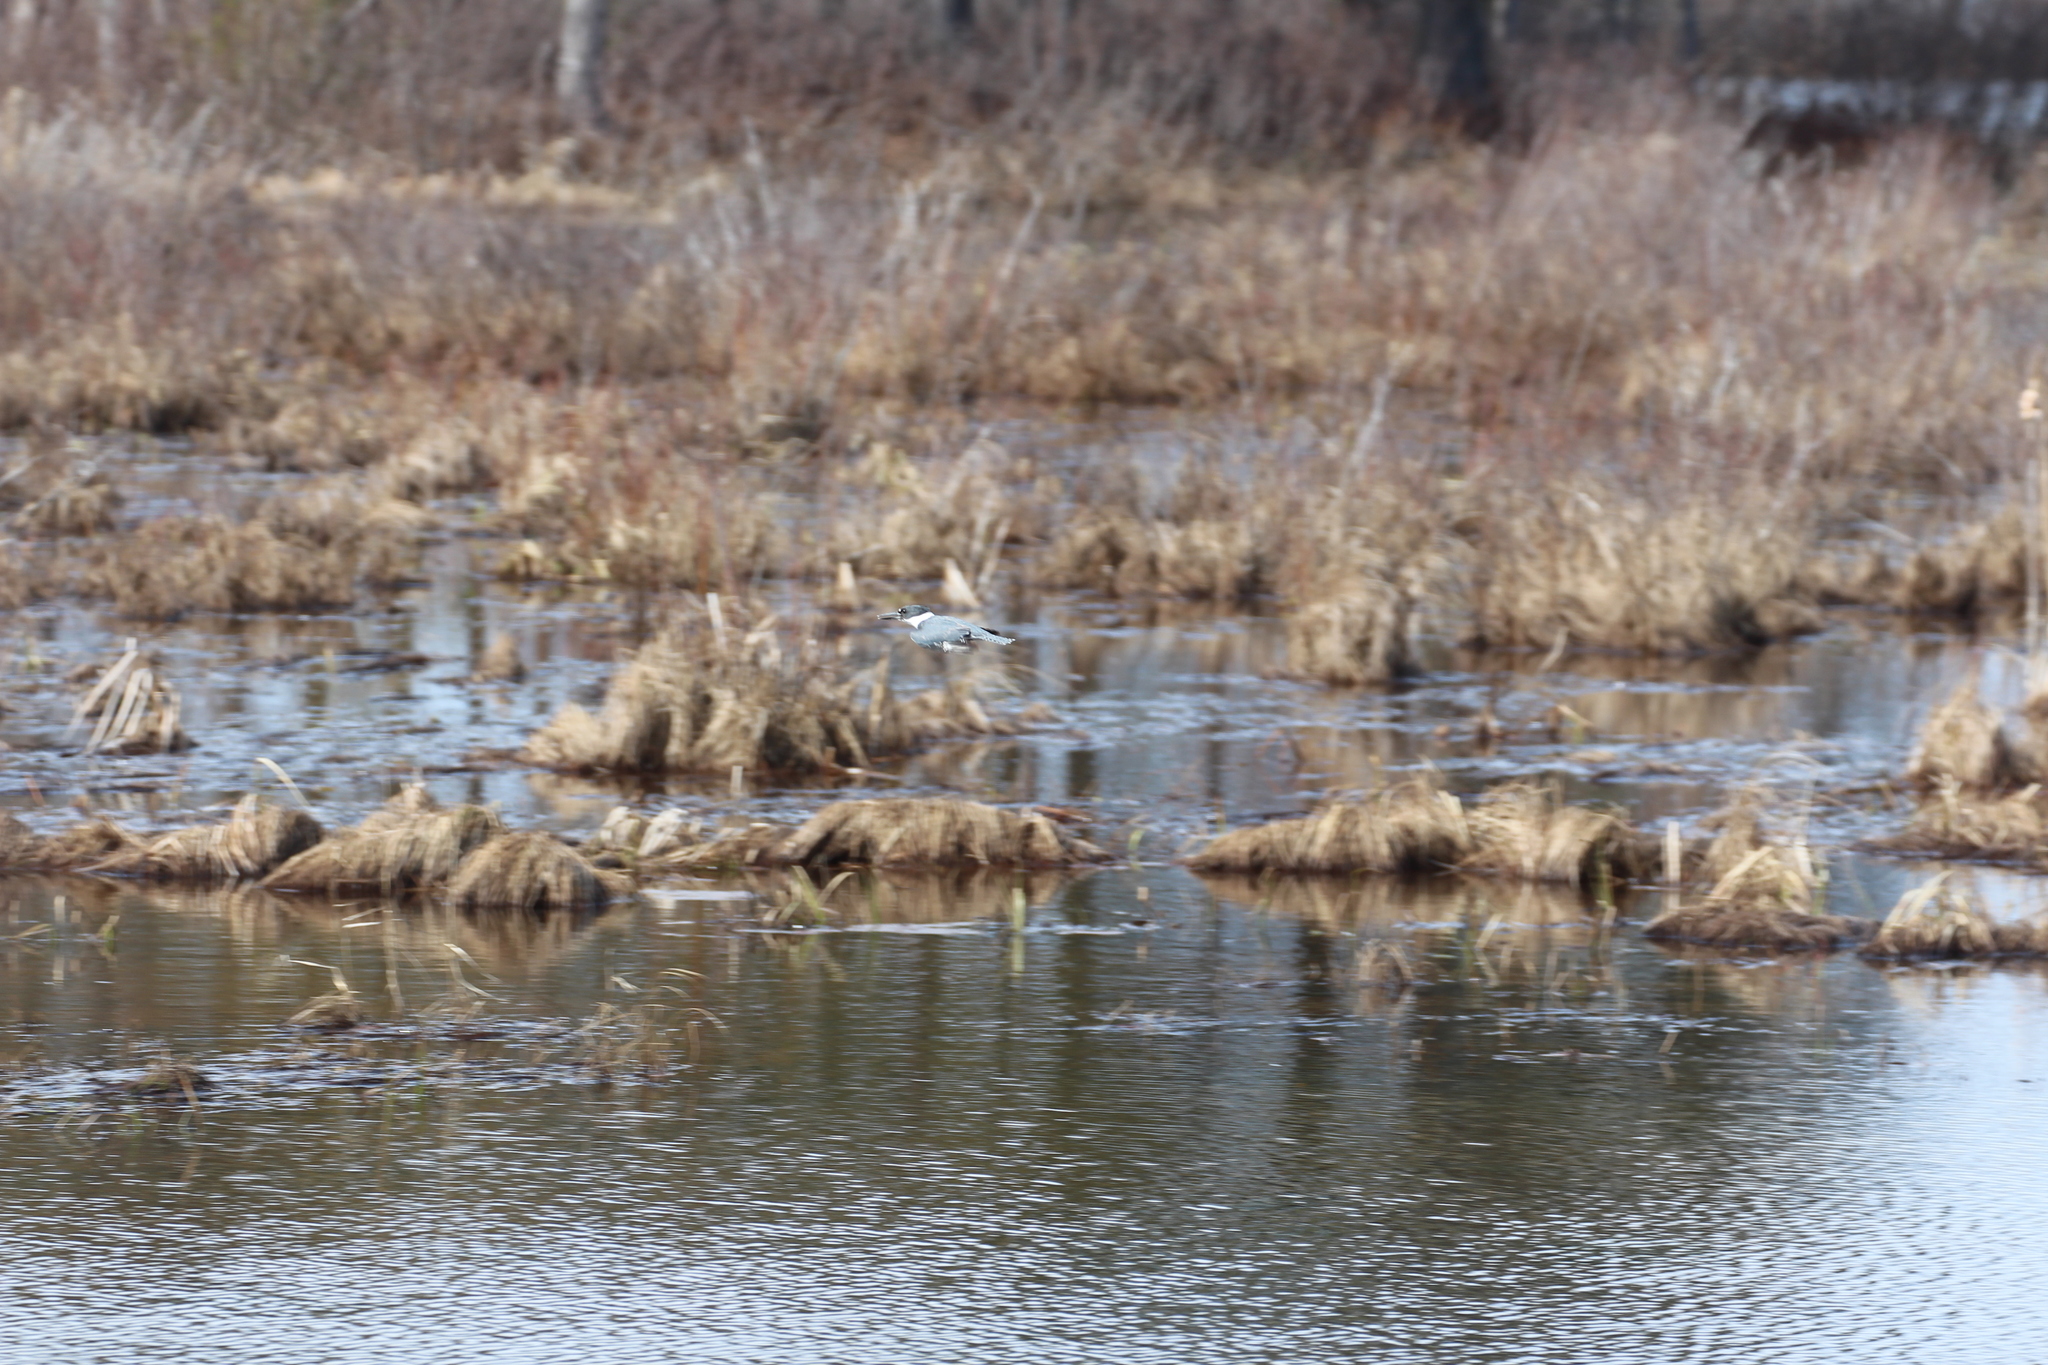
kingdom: Animalia
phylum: Chordata
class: Aves
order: Coraciiformes
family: Alcedinidae
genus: Megaceryle
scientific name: Megaceryle alcyon
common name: Belted kingfisher
